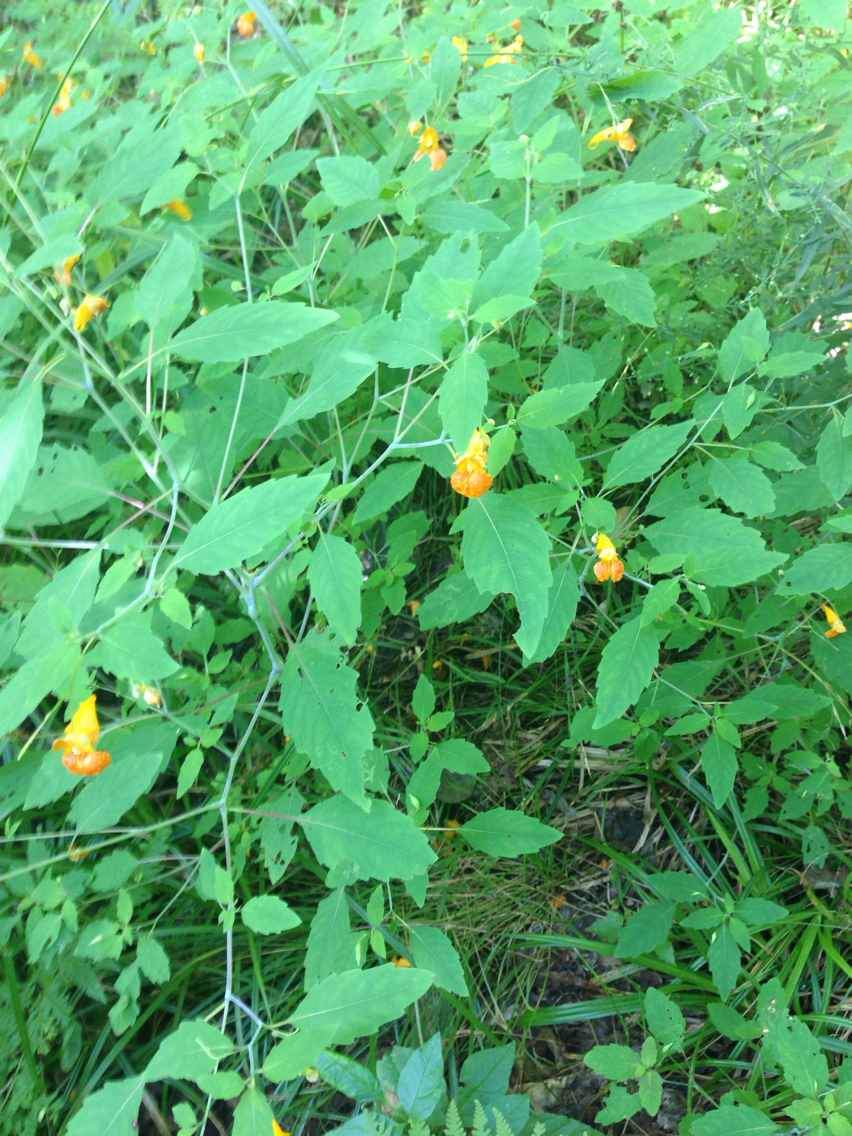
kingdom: Plantae
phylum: Tracheophyta
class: Magnoliopsida
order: Ericales
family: Balsaminaceae
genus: Impatiens
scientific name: Impatiens capensis
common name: Orange balsam
